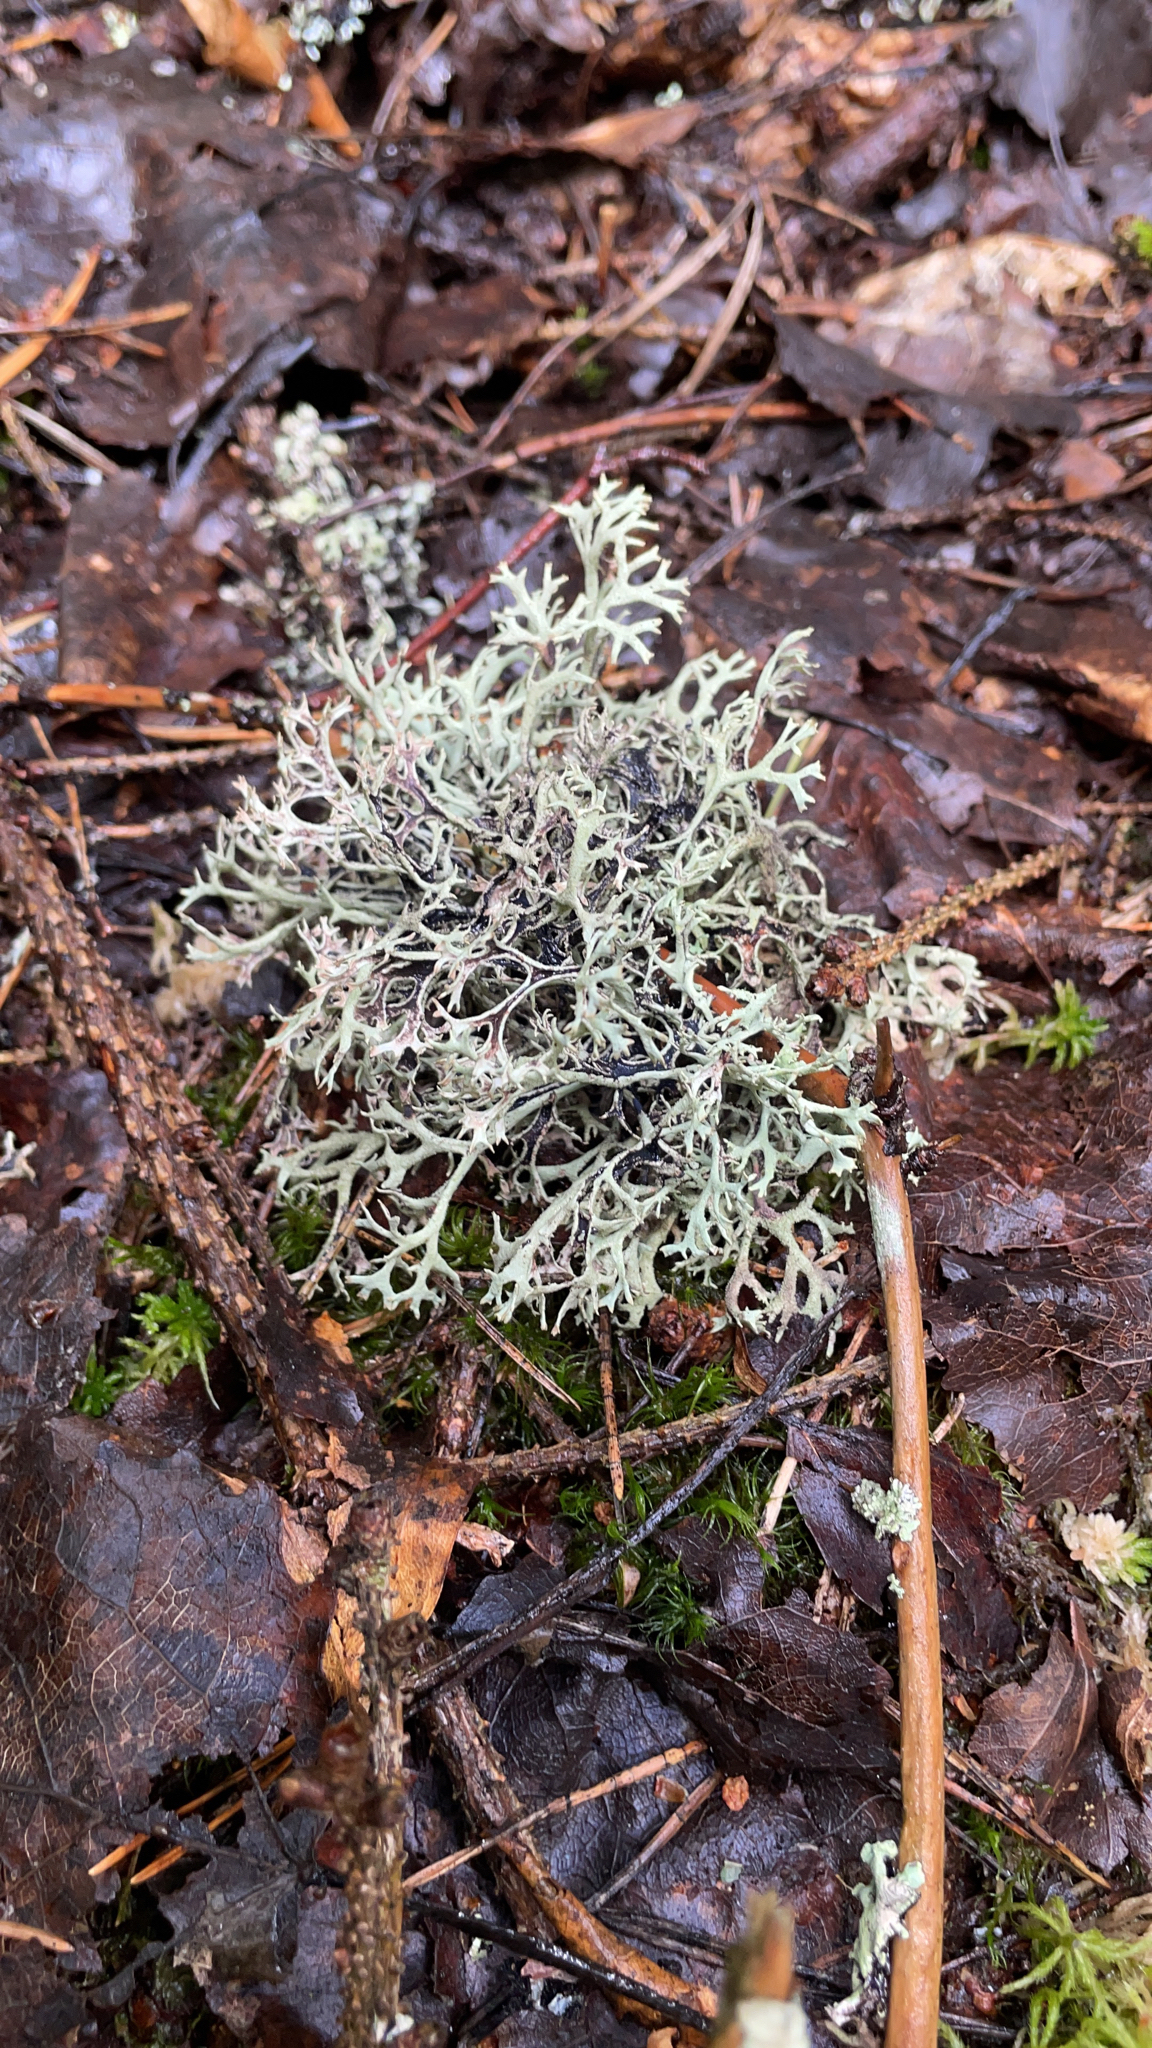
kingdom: Fungi
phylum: Ascomycota
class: Lecanoromycetes
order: Lecanorales
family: Parmeliaceae
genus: Pseudevernia
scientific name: Pseudevernia furfuracea
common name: Tree moss
